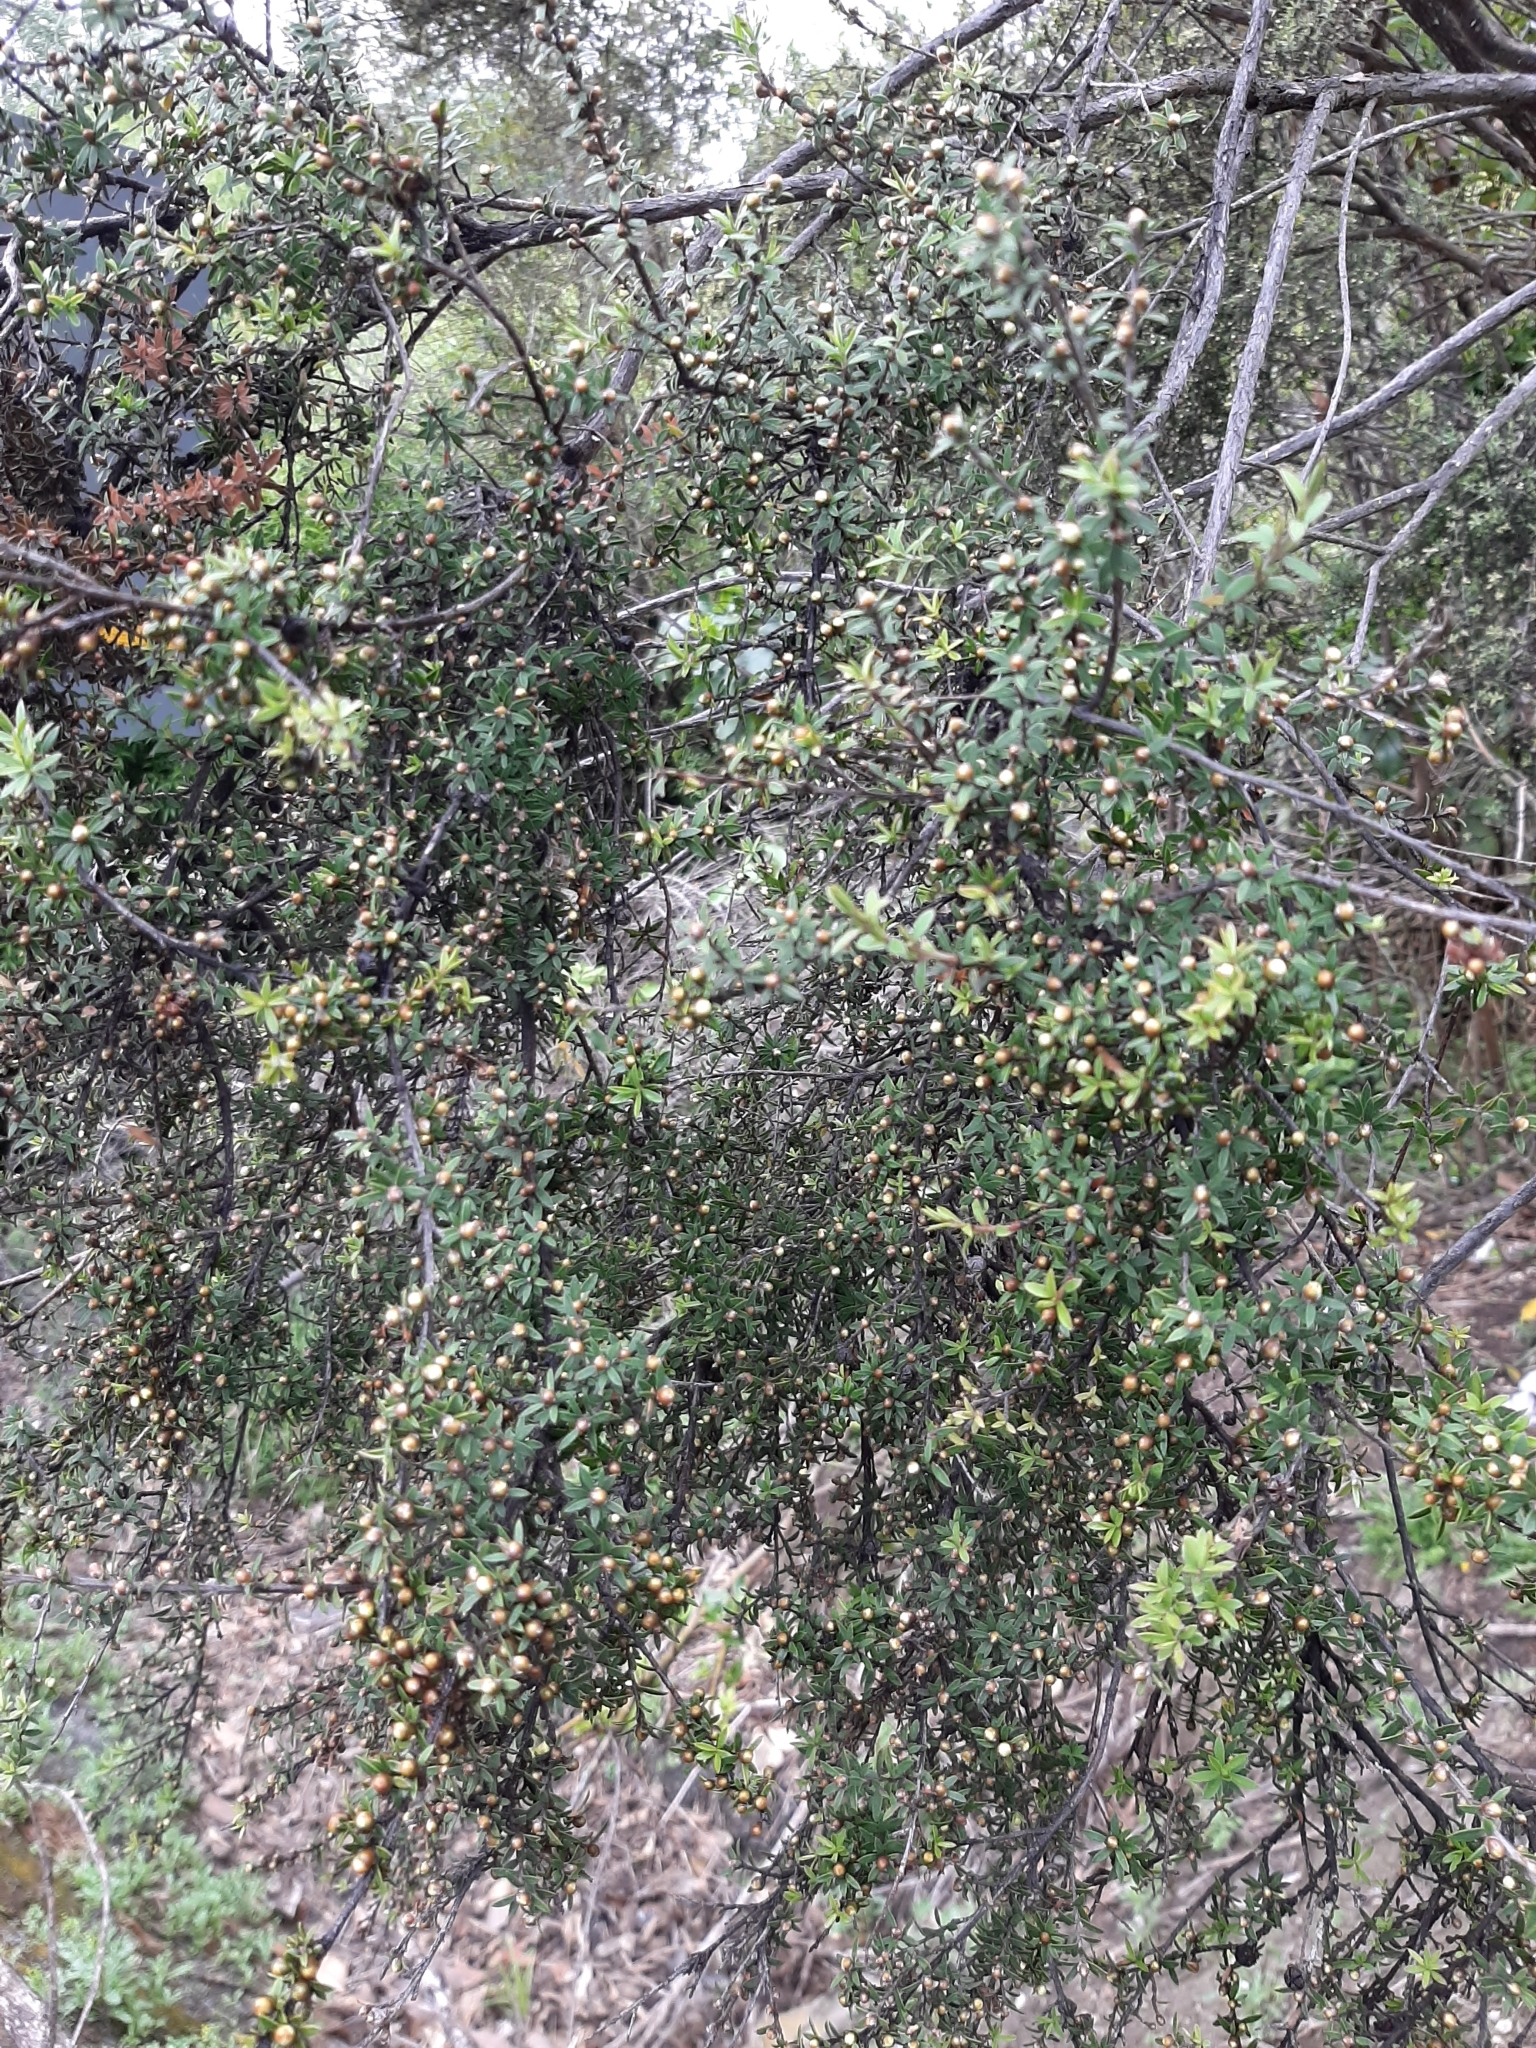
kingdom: Plantae
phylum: Tracheophyta
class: Magnoliopsida
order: Myrtales
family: Myrtaceae
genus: Leptospermum
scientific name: Leptospermum scoparium
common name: Broom tea-tree
